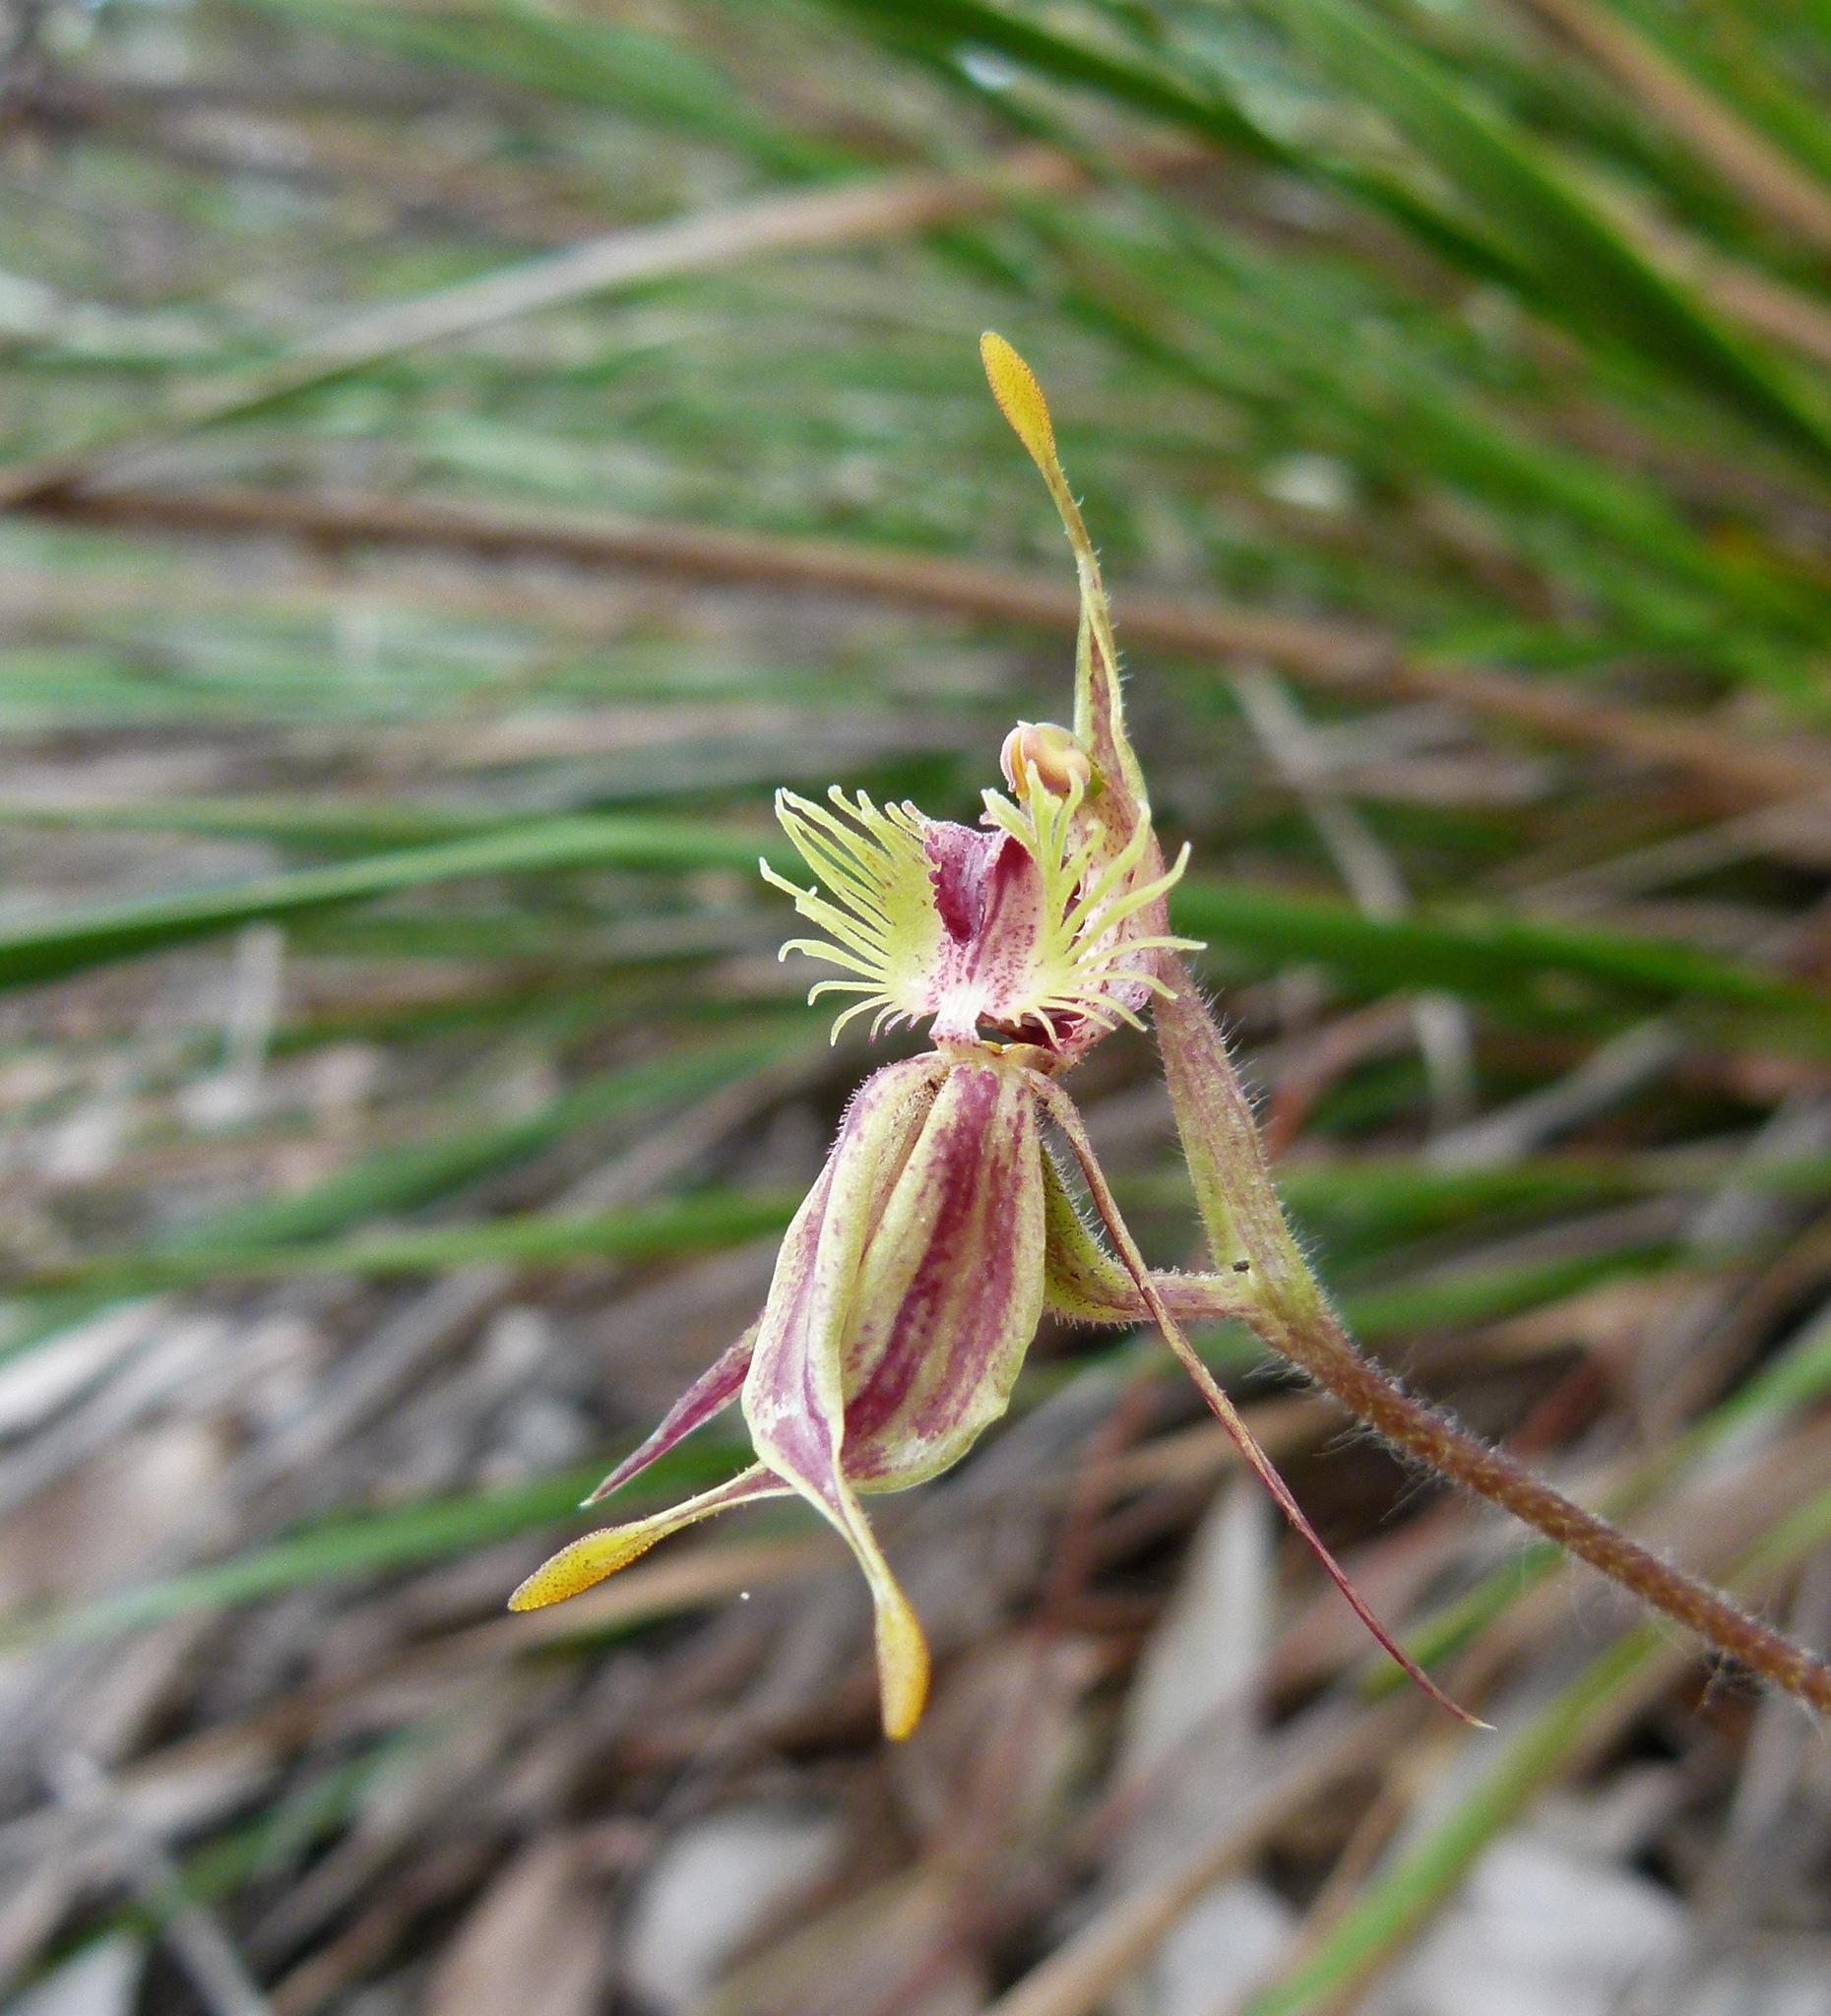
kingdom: Plantae
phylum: Tracheophyta
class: Liliopsida
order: Asparagales
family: Orchidaceae
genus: Caladenia
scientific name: Caladenia plicata
